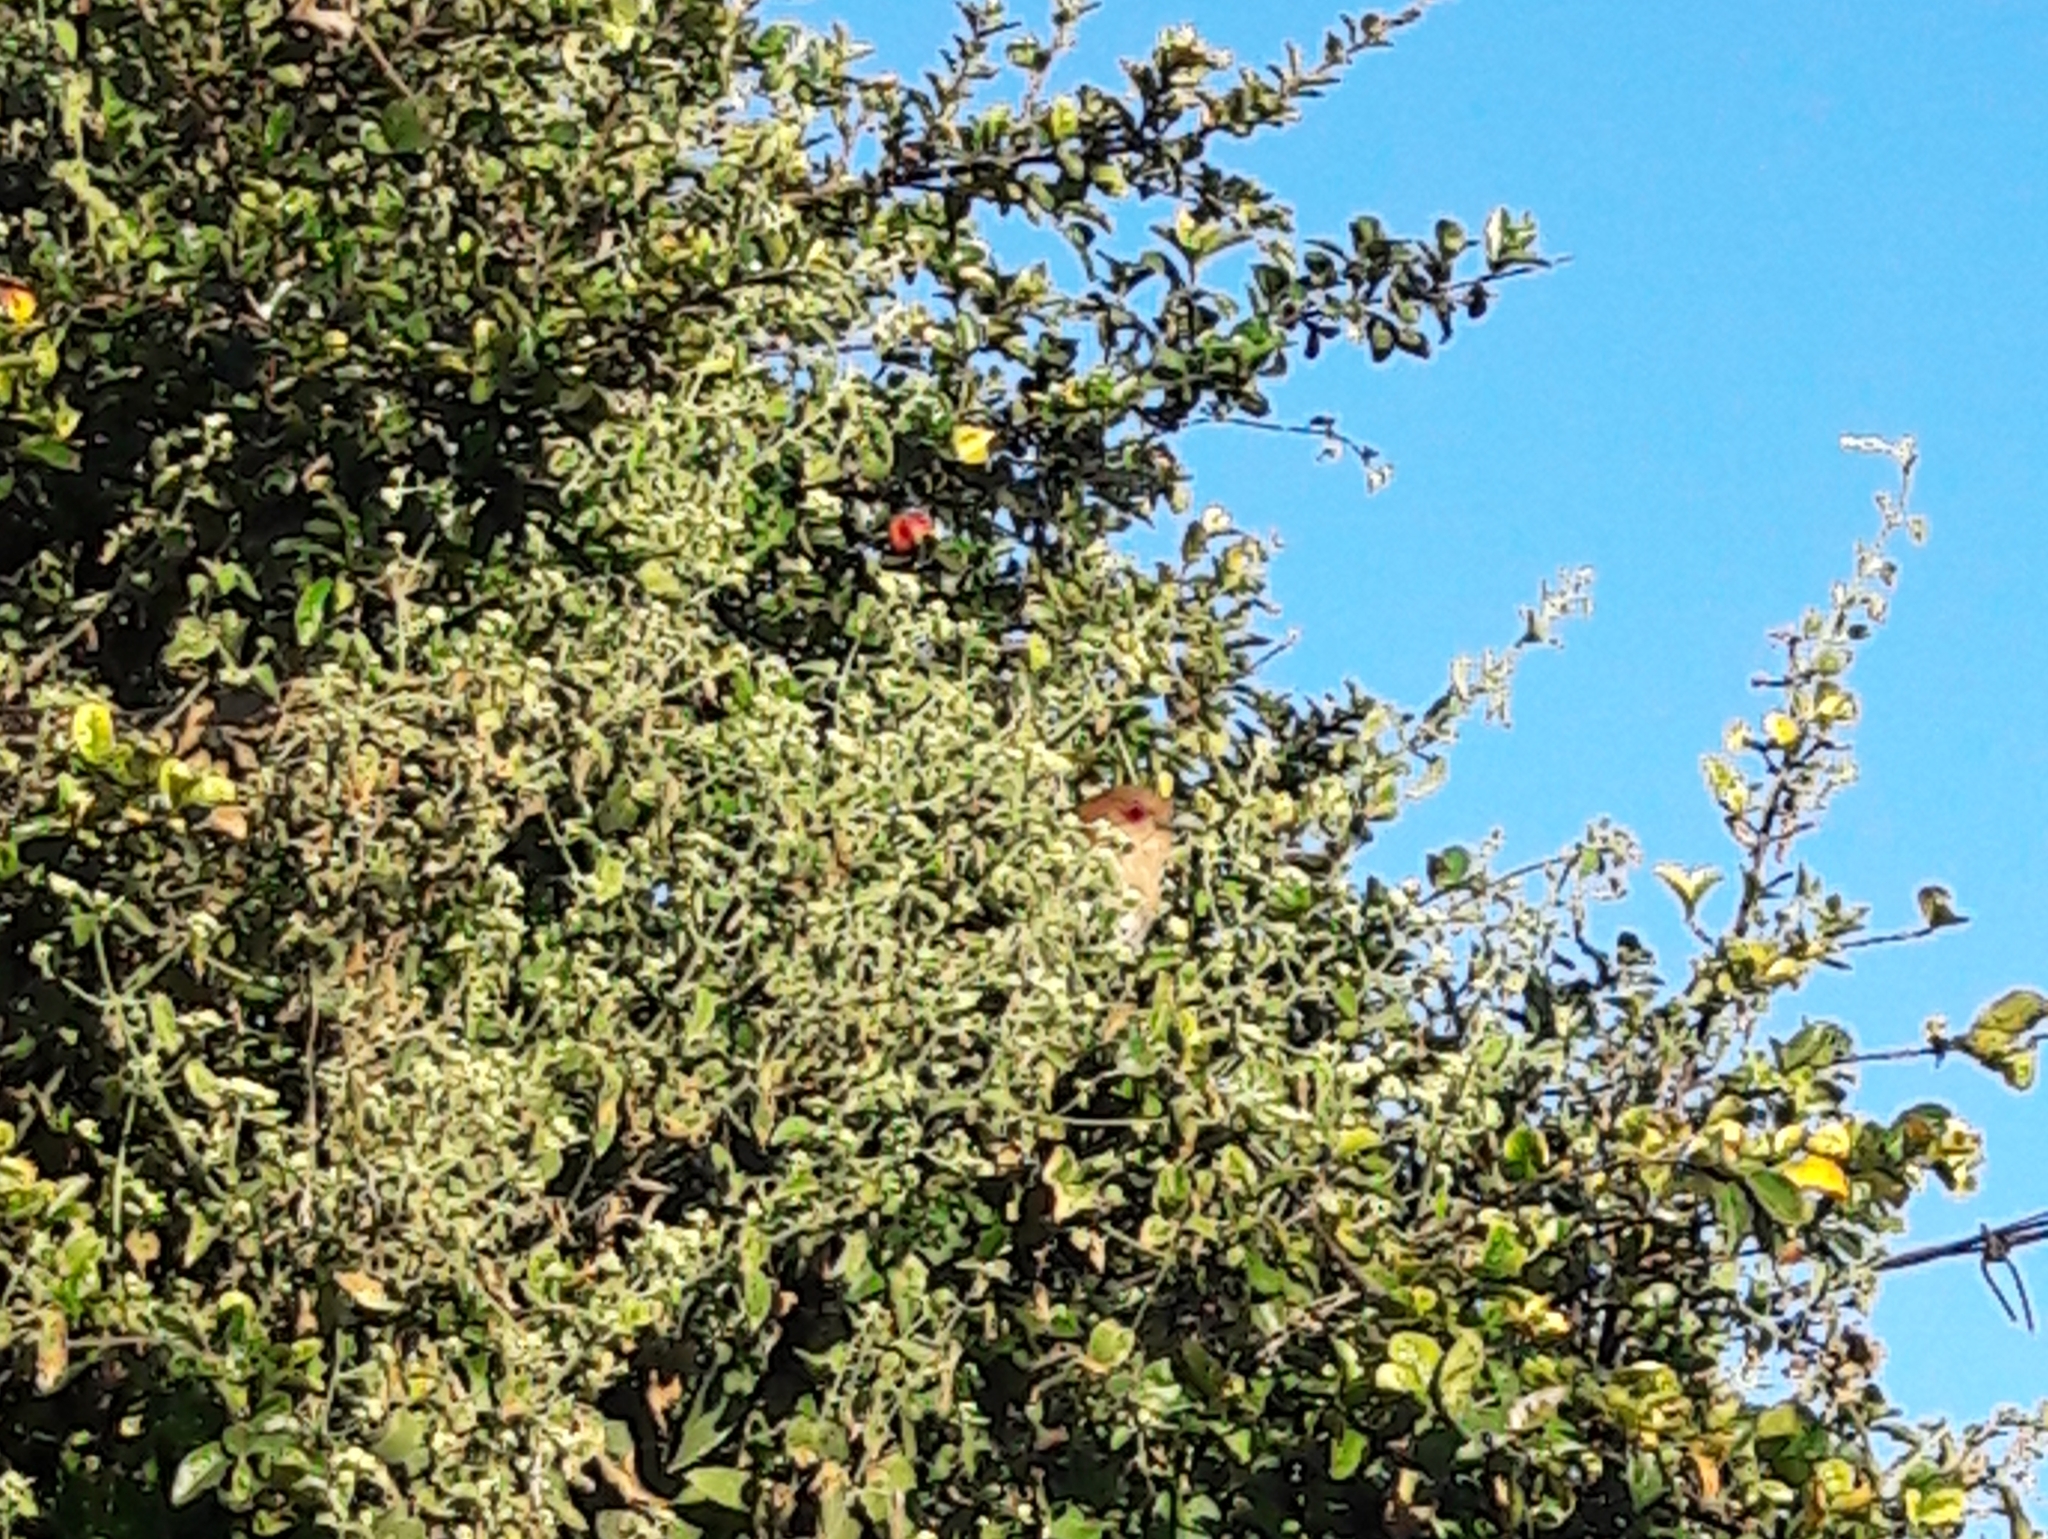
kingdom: Animalia
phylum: Chordata
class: Aves
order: Cuculiformes
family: Cuculidae
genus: Piaya
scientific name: Piaya cayana
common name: Squirrel cuckoo
